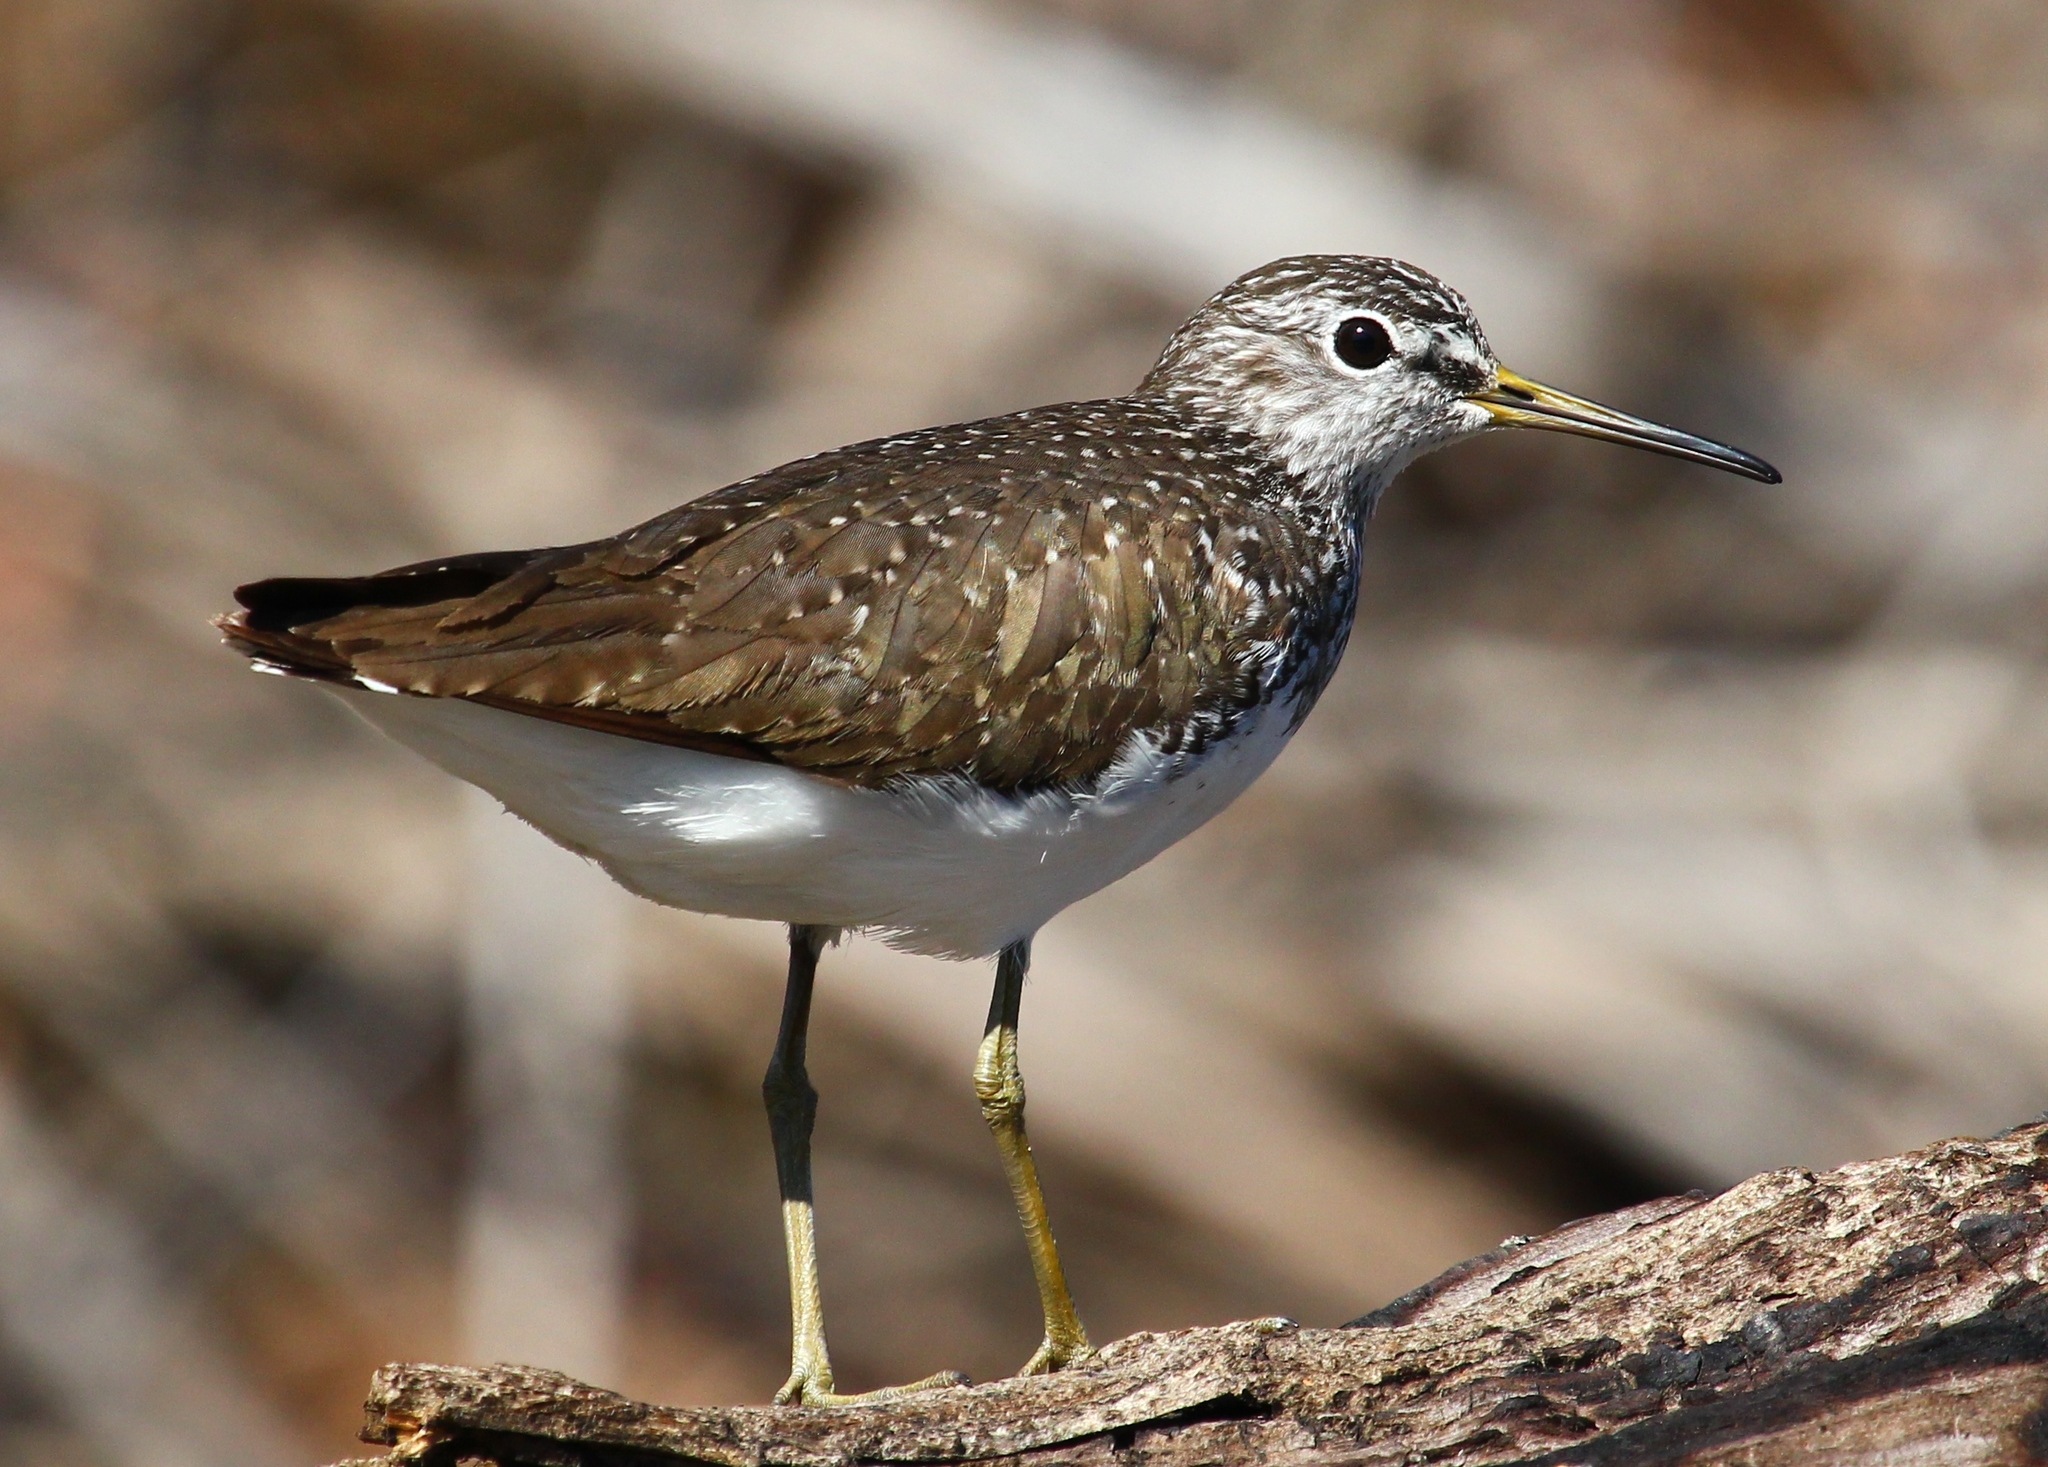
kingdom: Animalia
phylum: Chordata
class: Aves
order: Charadriiformes
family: Scolopacidae
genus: Tringa
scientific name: Tringa ochropus
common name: Green sandpiper
